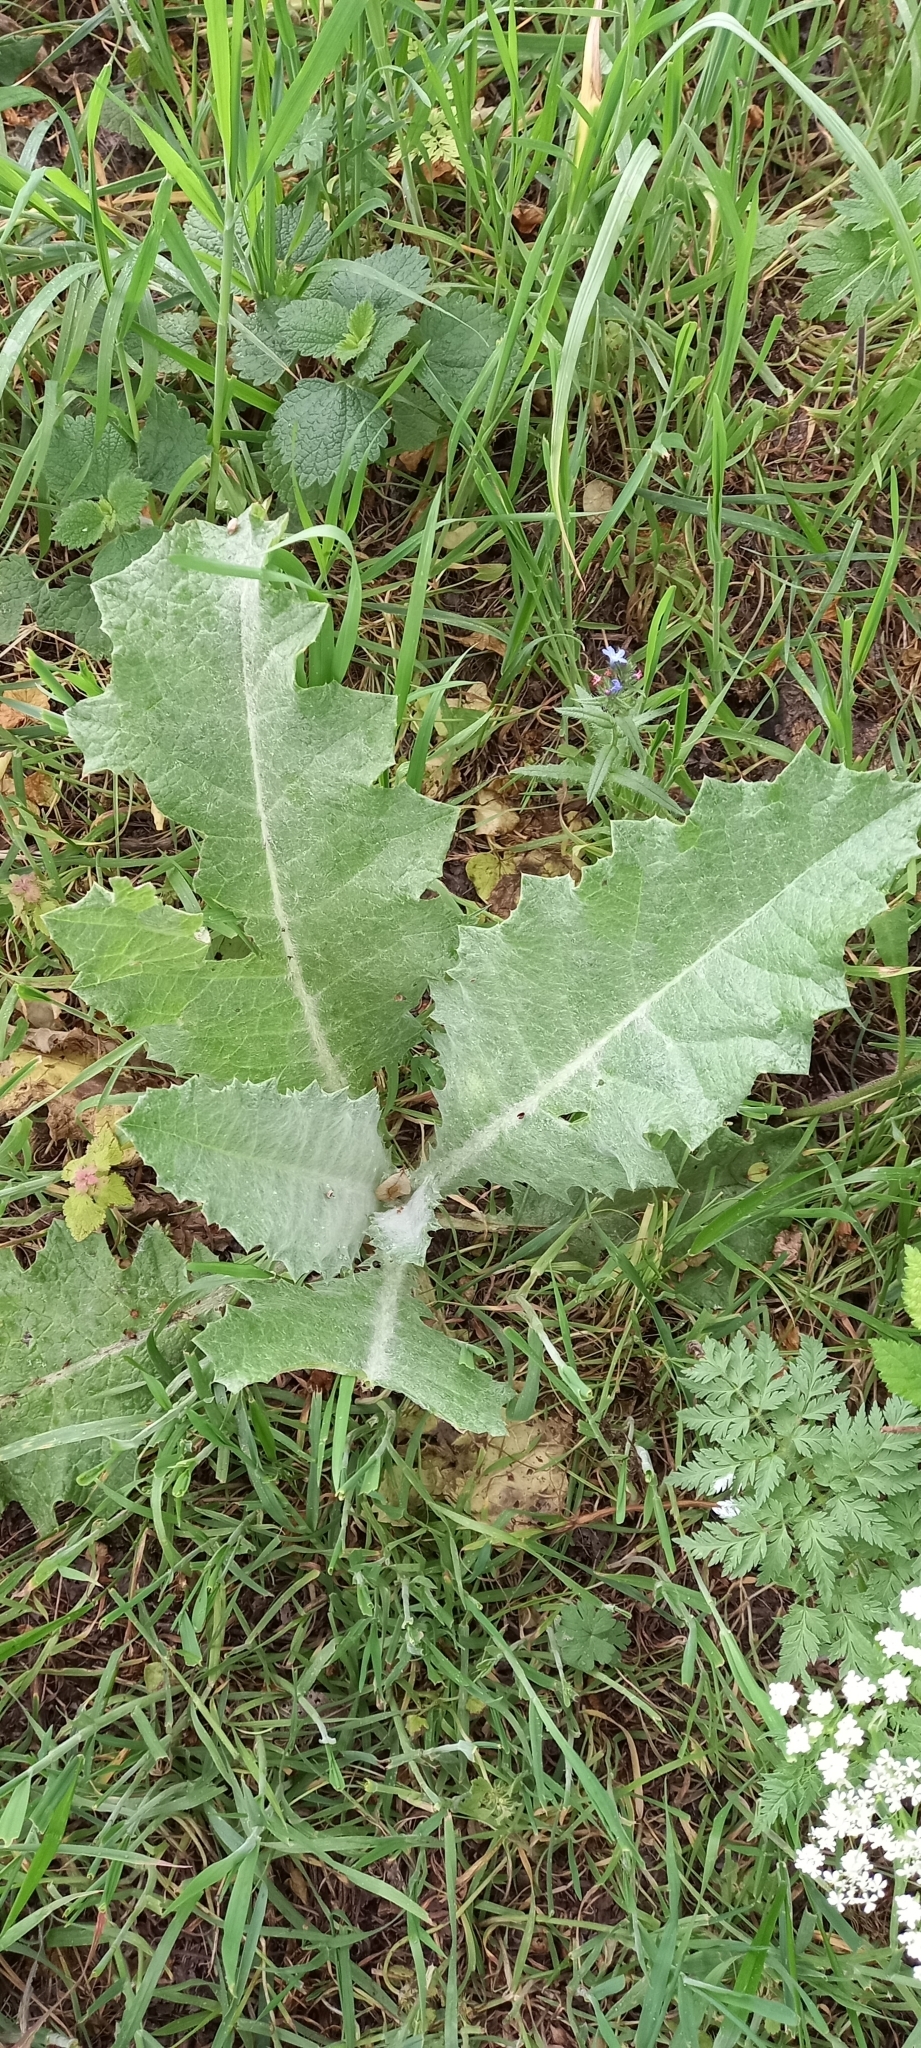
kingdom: Plantae
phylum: Tracheophyta
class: Magnoliopsida
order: Asterales
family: Asteraceae
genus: Onopordum
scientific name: Onopordum acanthium
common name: Scotch thistle
